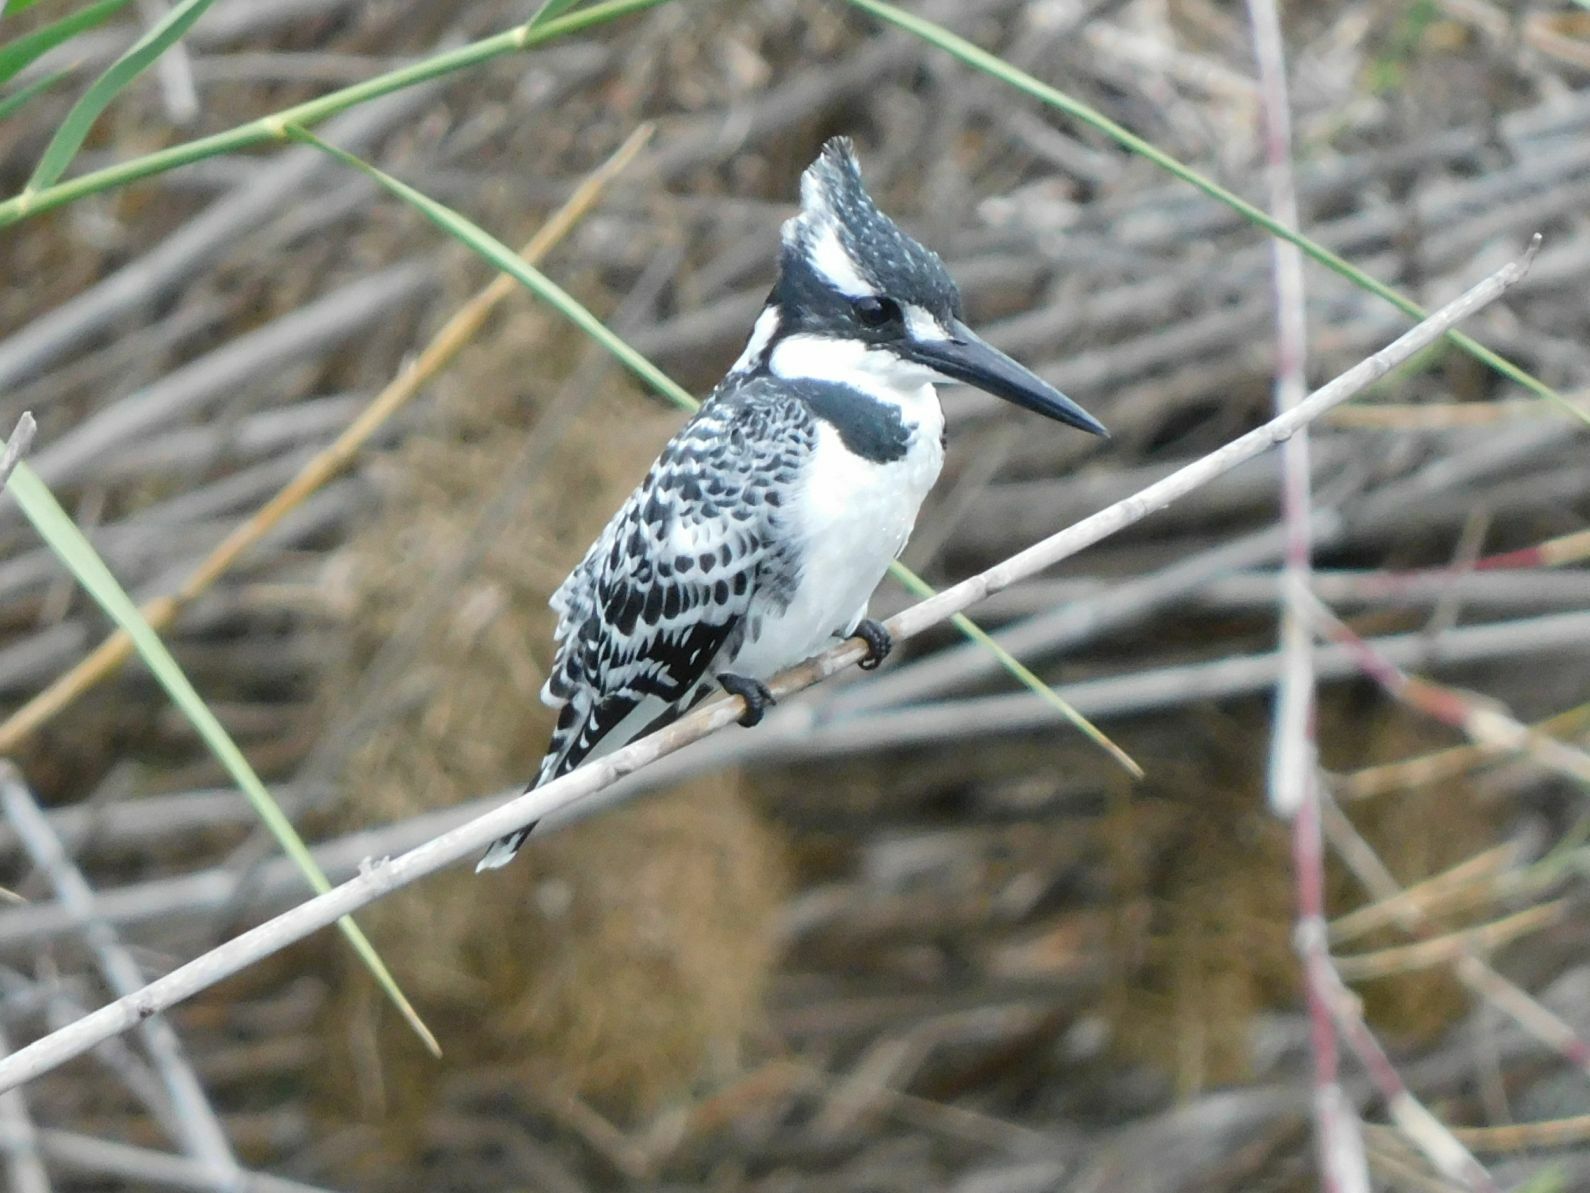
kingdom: Animalia
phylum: Chordata
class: Aves
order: Coraciiformes
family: Alcedinidae
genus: Ceryle
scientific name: Ceryle rudis
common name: Pied kingfisher
